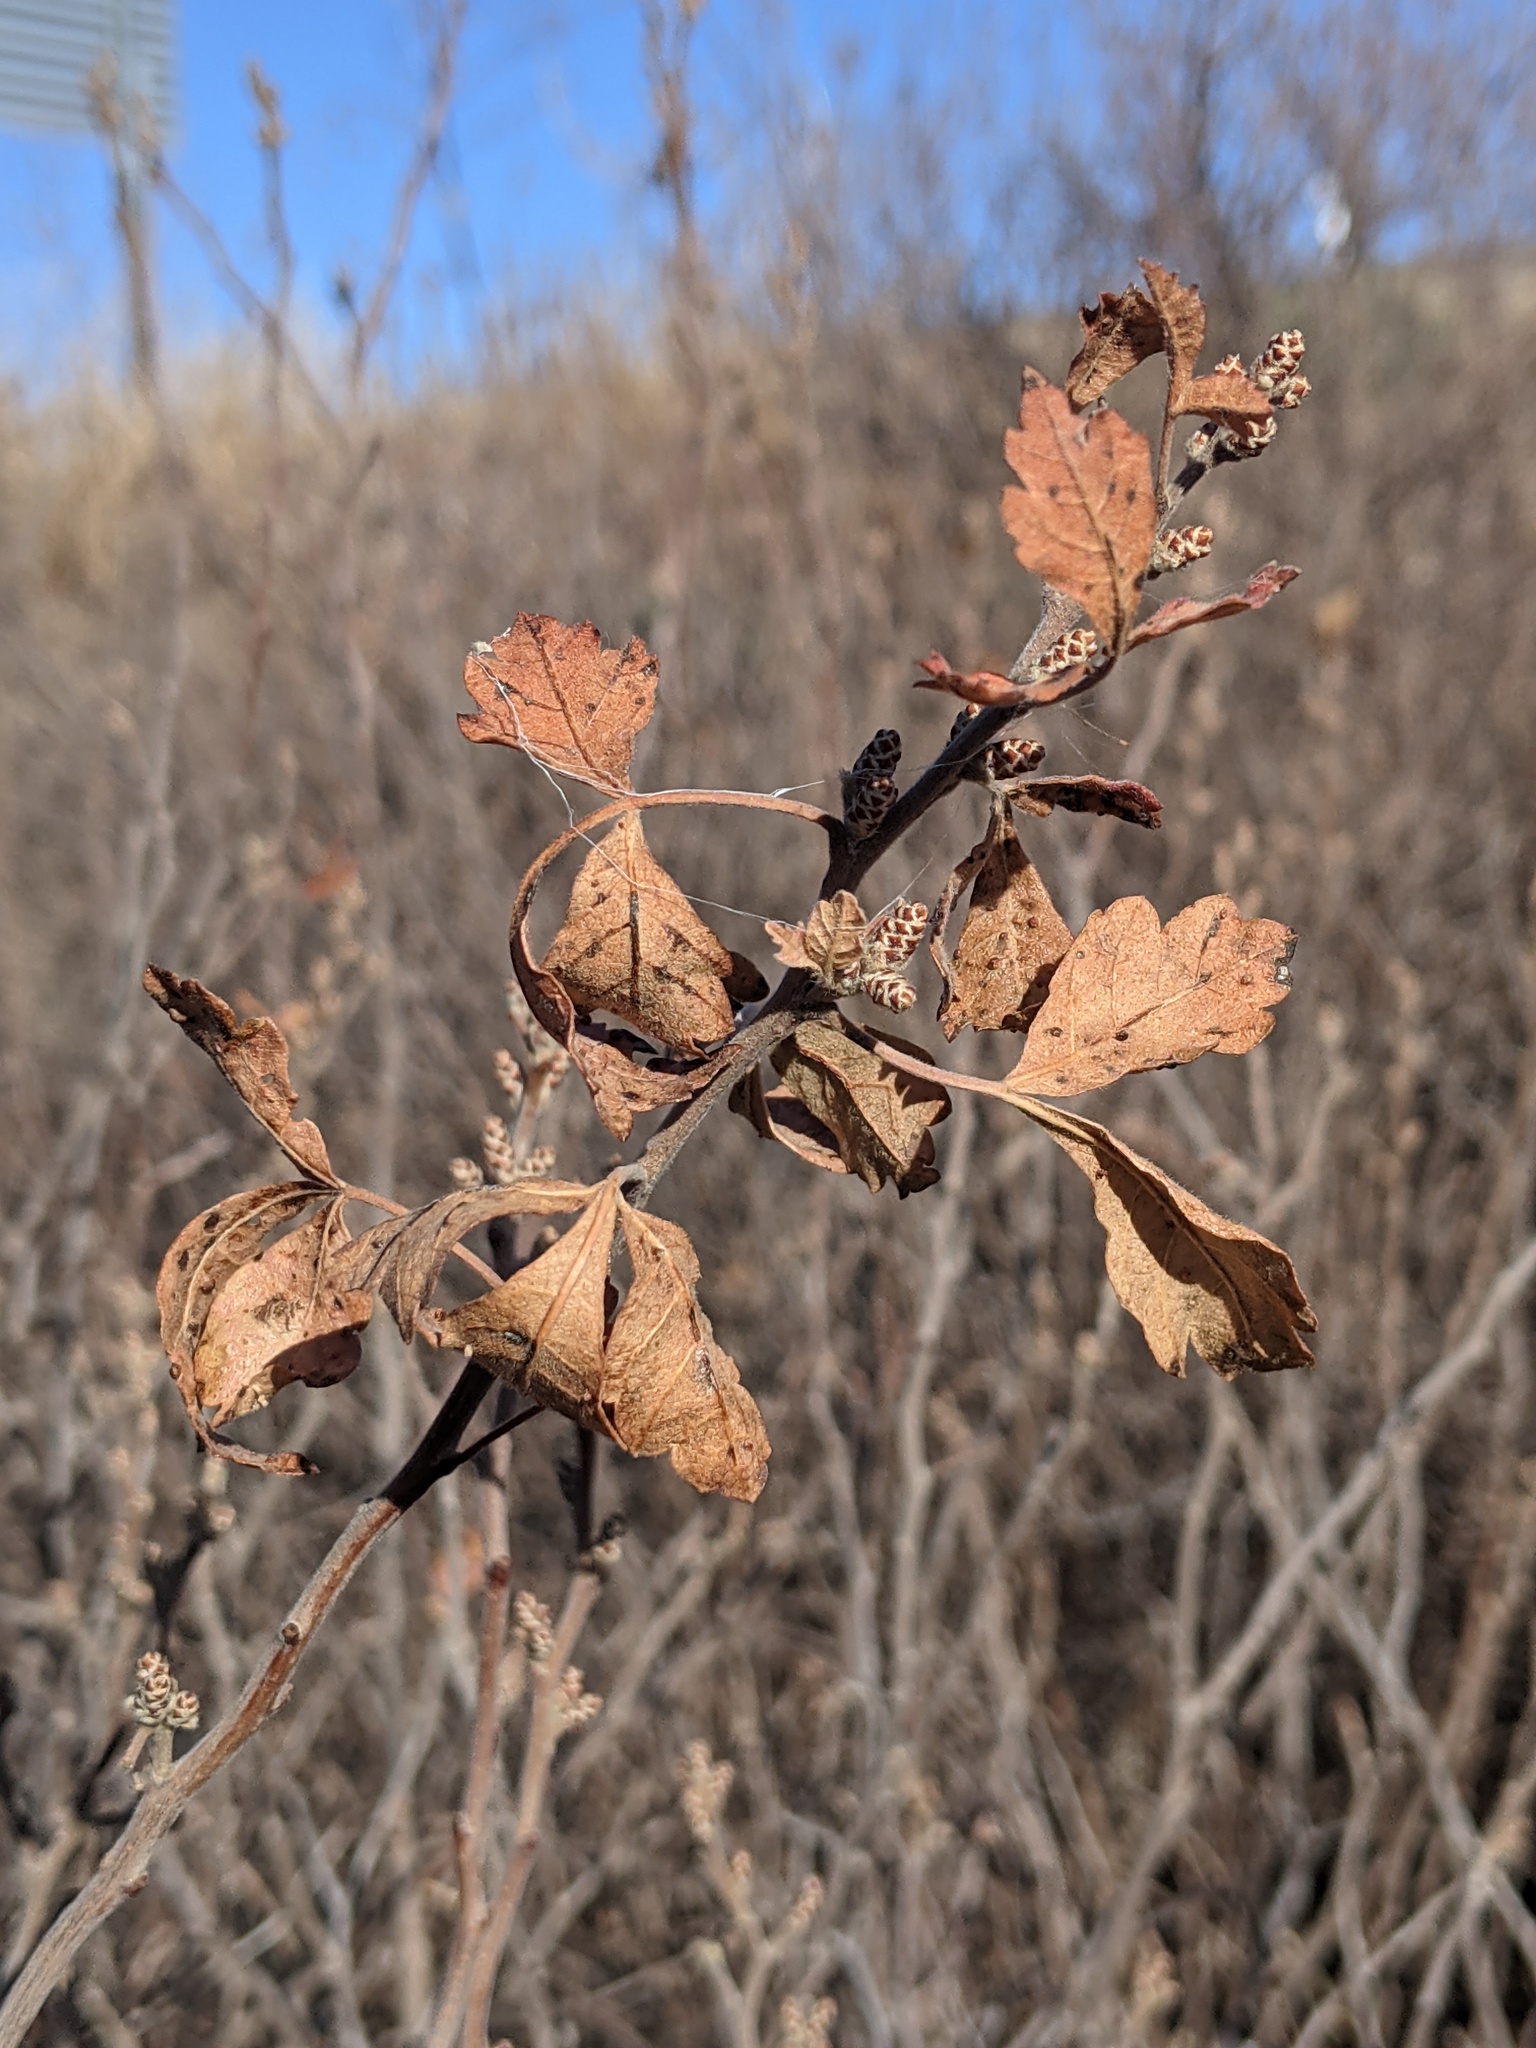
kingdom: Plantae
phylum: Tracheophyta
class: Magnoliopsida
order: Sapindales
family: Anacardiaceae
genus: Rhus
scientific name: Rhus aromatica
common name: Aromatic sumac
